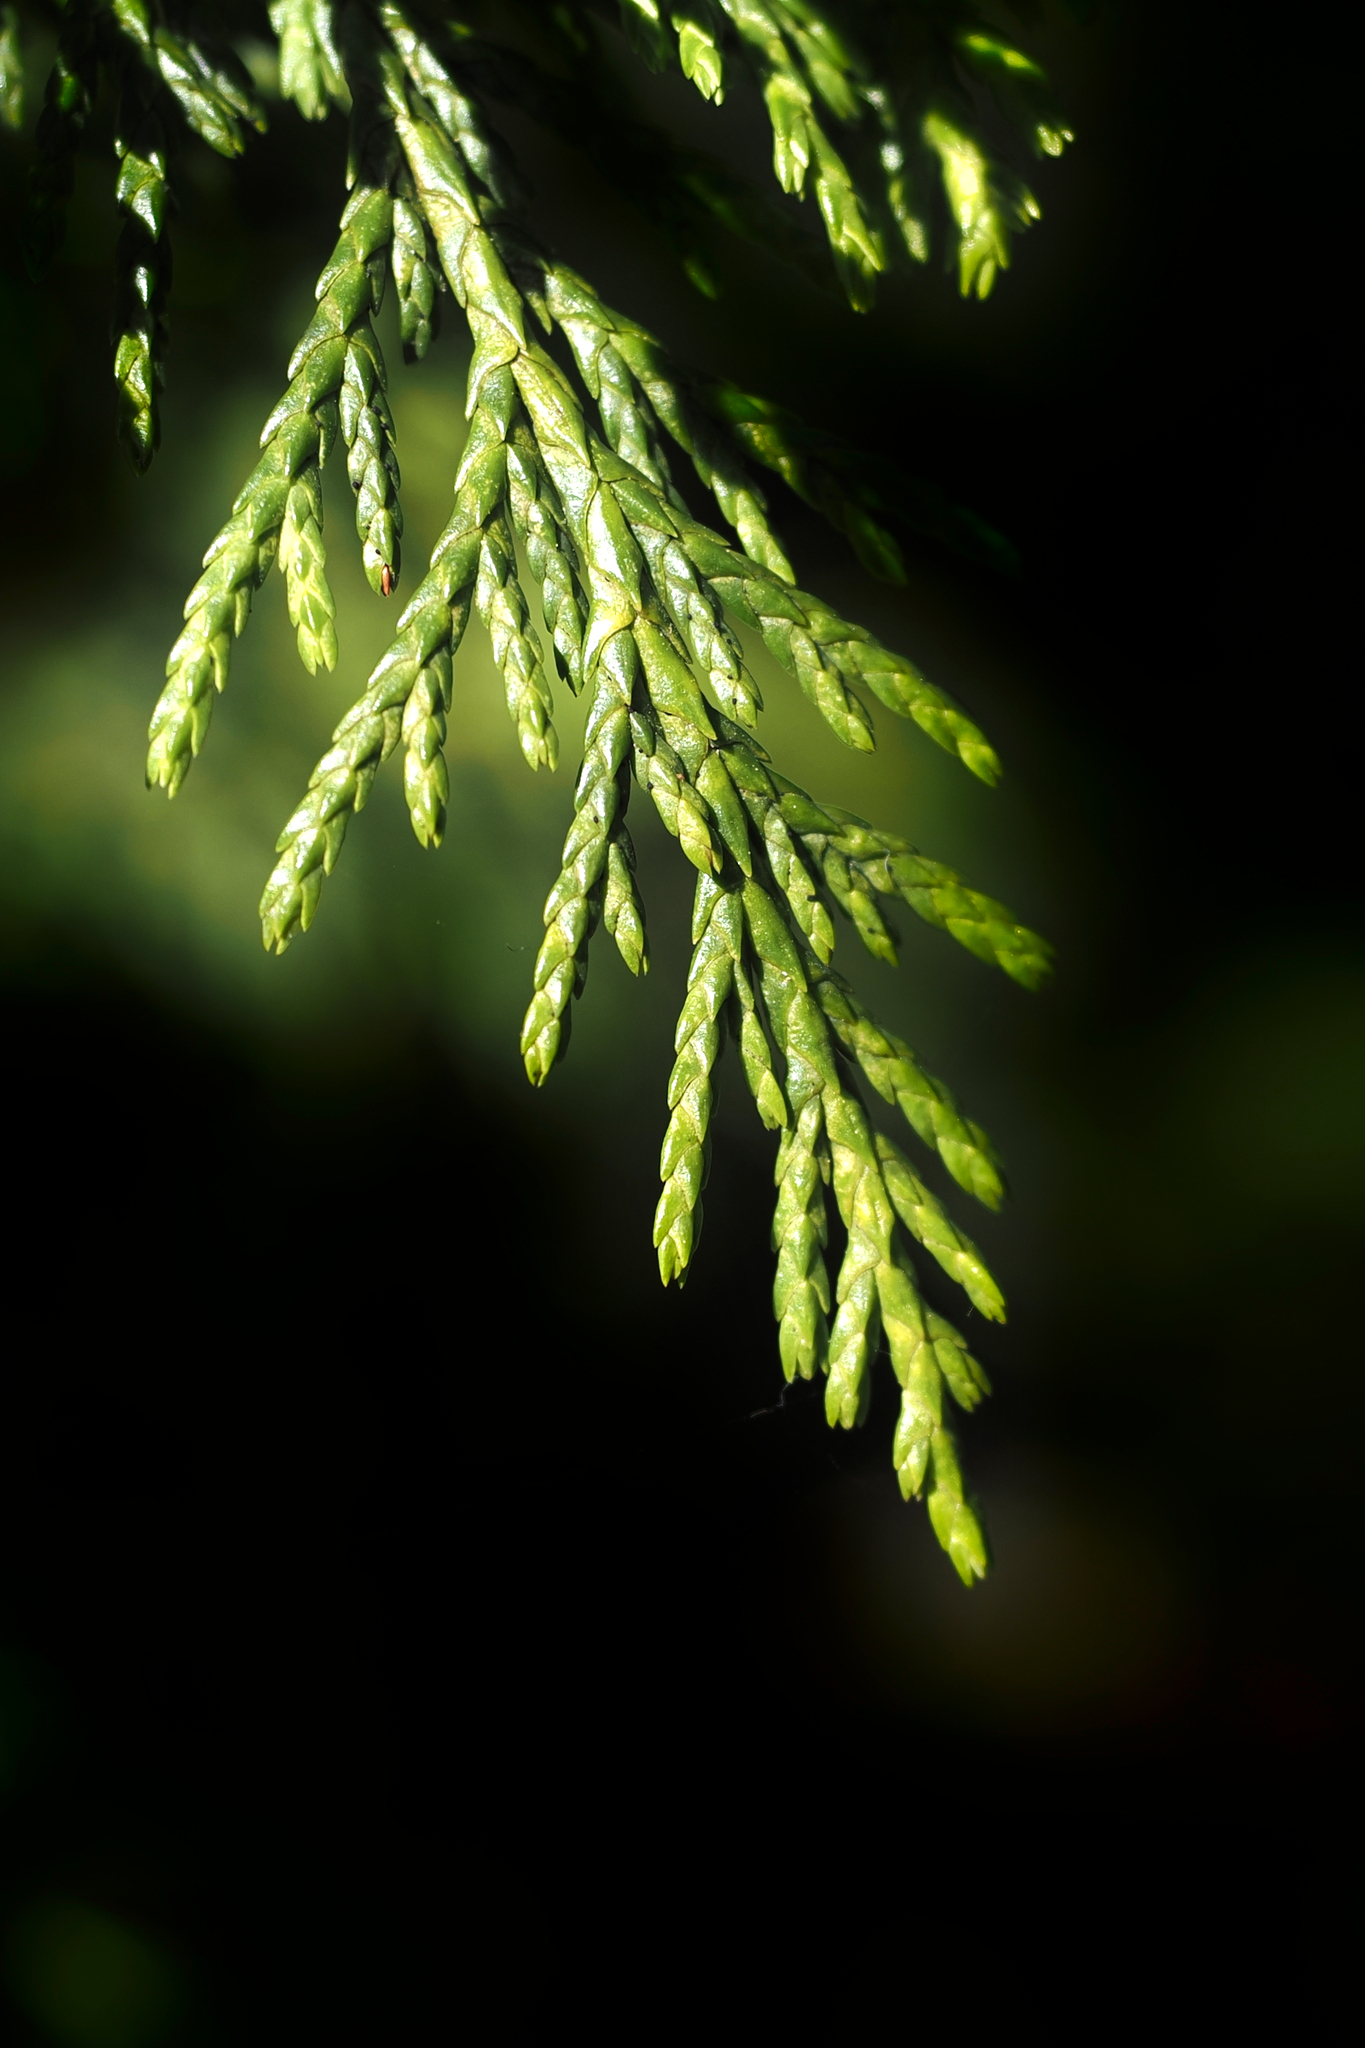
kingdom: Plantae
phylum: Tracheophyta
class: Pinopsida
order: Pinales
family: Cupressaceae
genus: Xanthocyparis
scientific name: Xanthocyparis nootkatensis
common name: Nootka cypress
